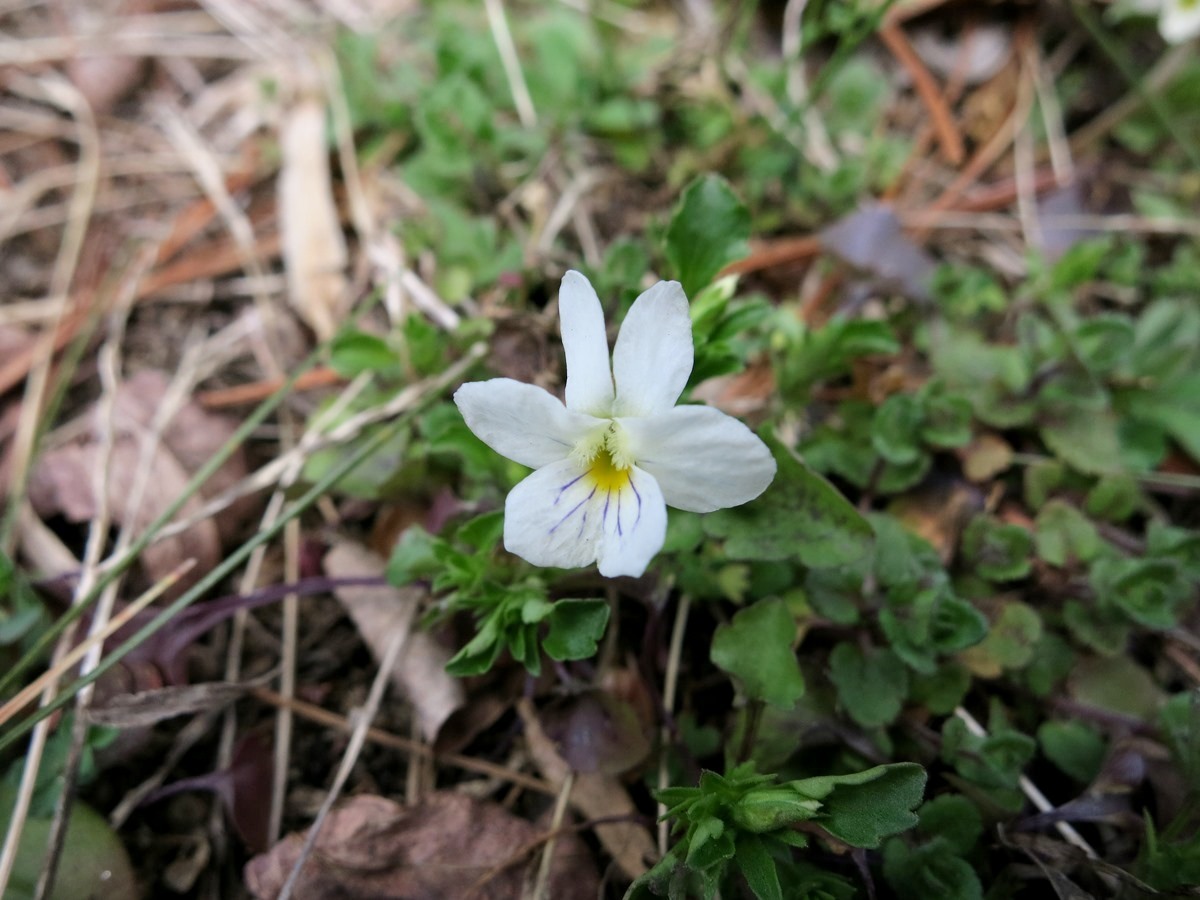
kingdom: Plantae
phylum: Tracheophyta
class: Magnoliopsida
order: Malpighiales
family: Violaceae
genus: Viola
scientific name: Viola rafinesquei
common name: American field pansy
